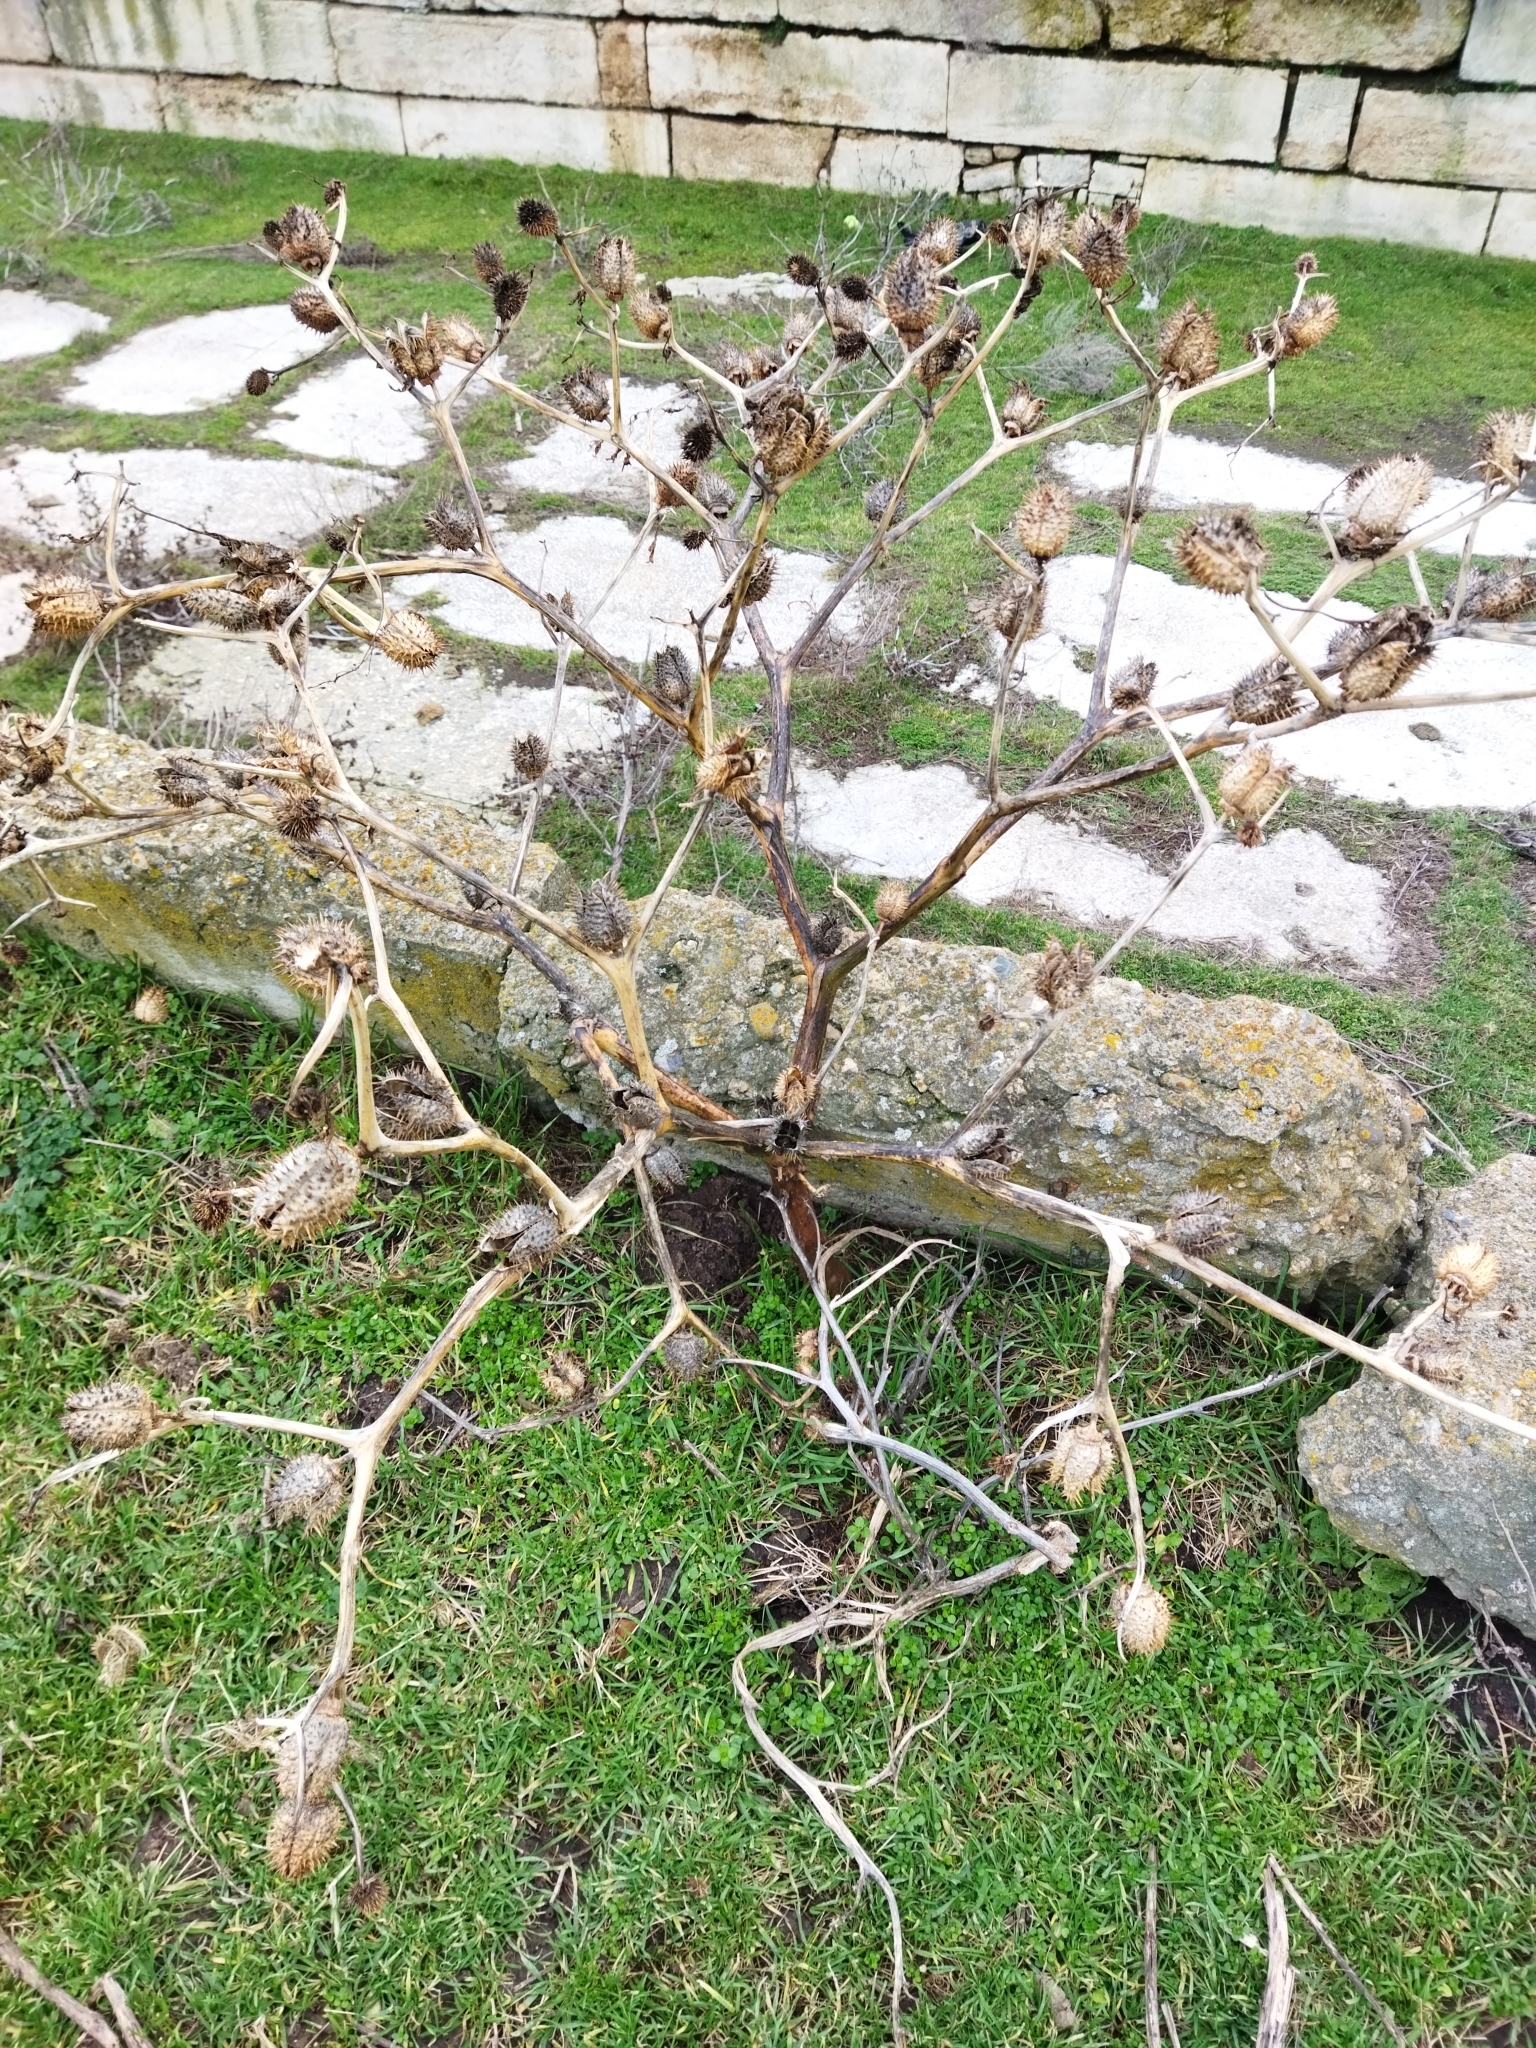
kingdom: Plantae
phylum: Tracheophyta
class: Magnoliopsida
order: Solanales
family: Solanaceae
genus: Datura
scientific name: Datura stramonium
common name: Thorn-apple
